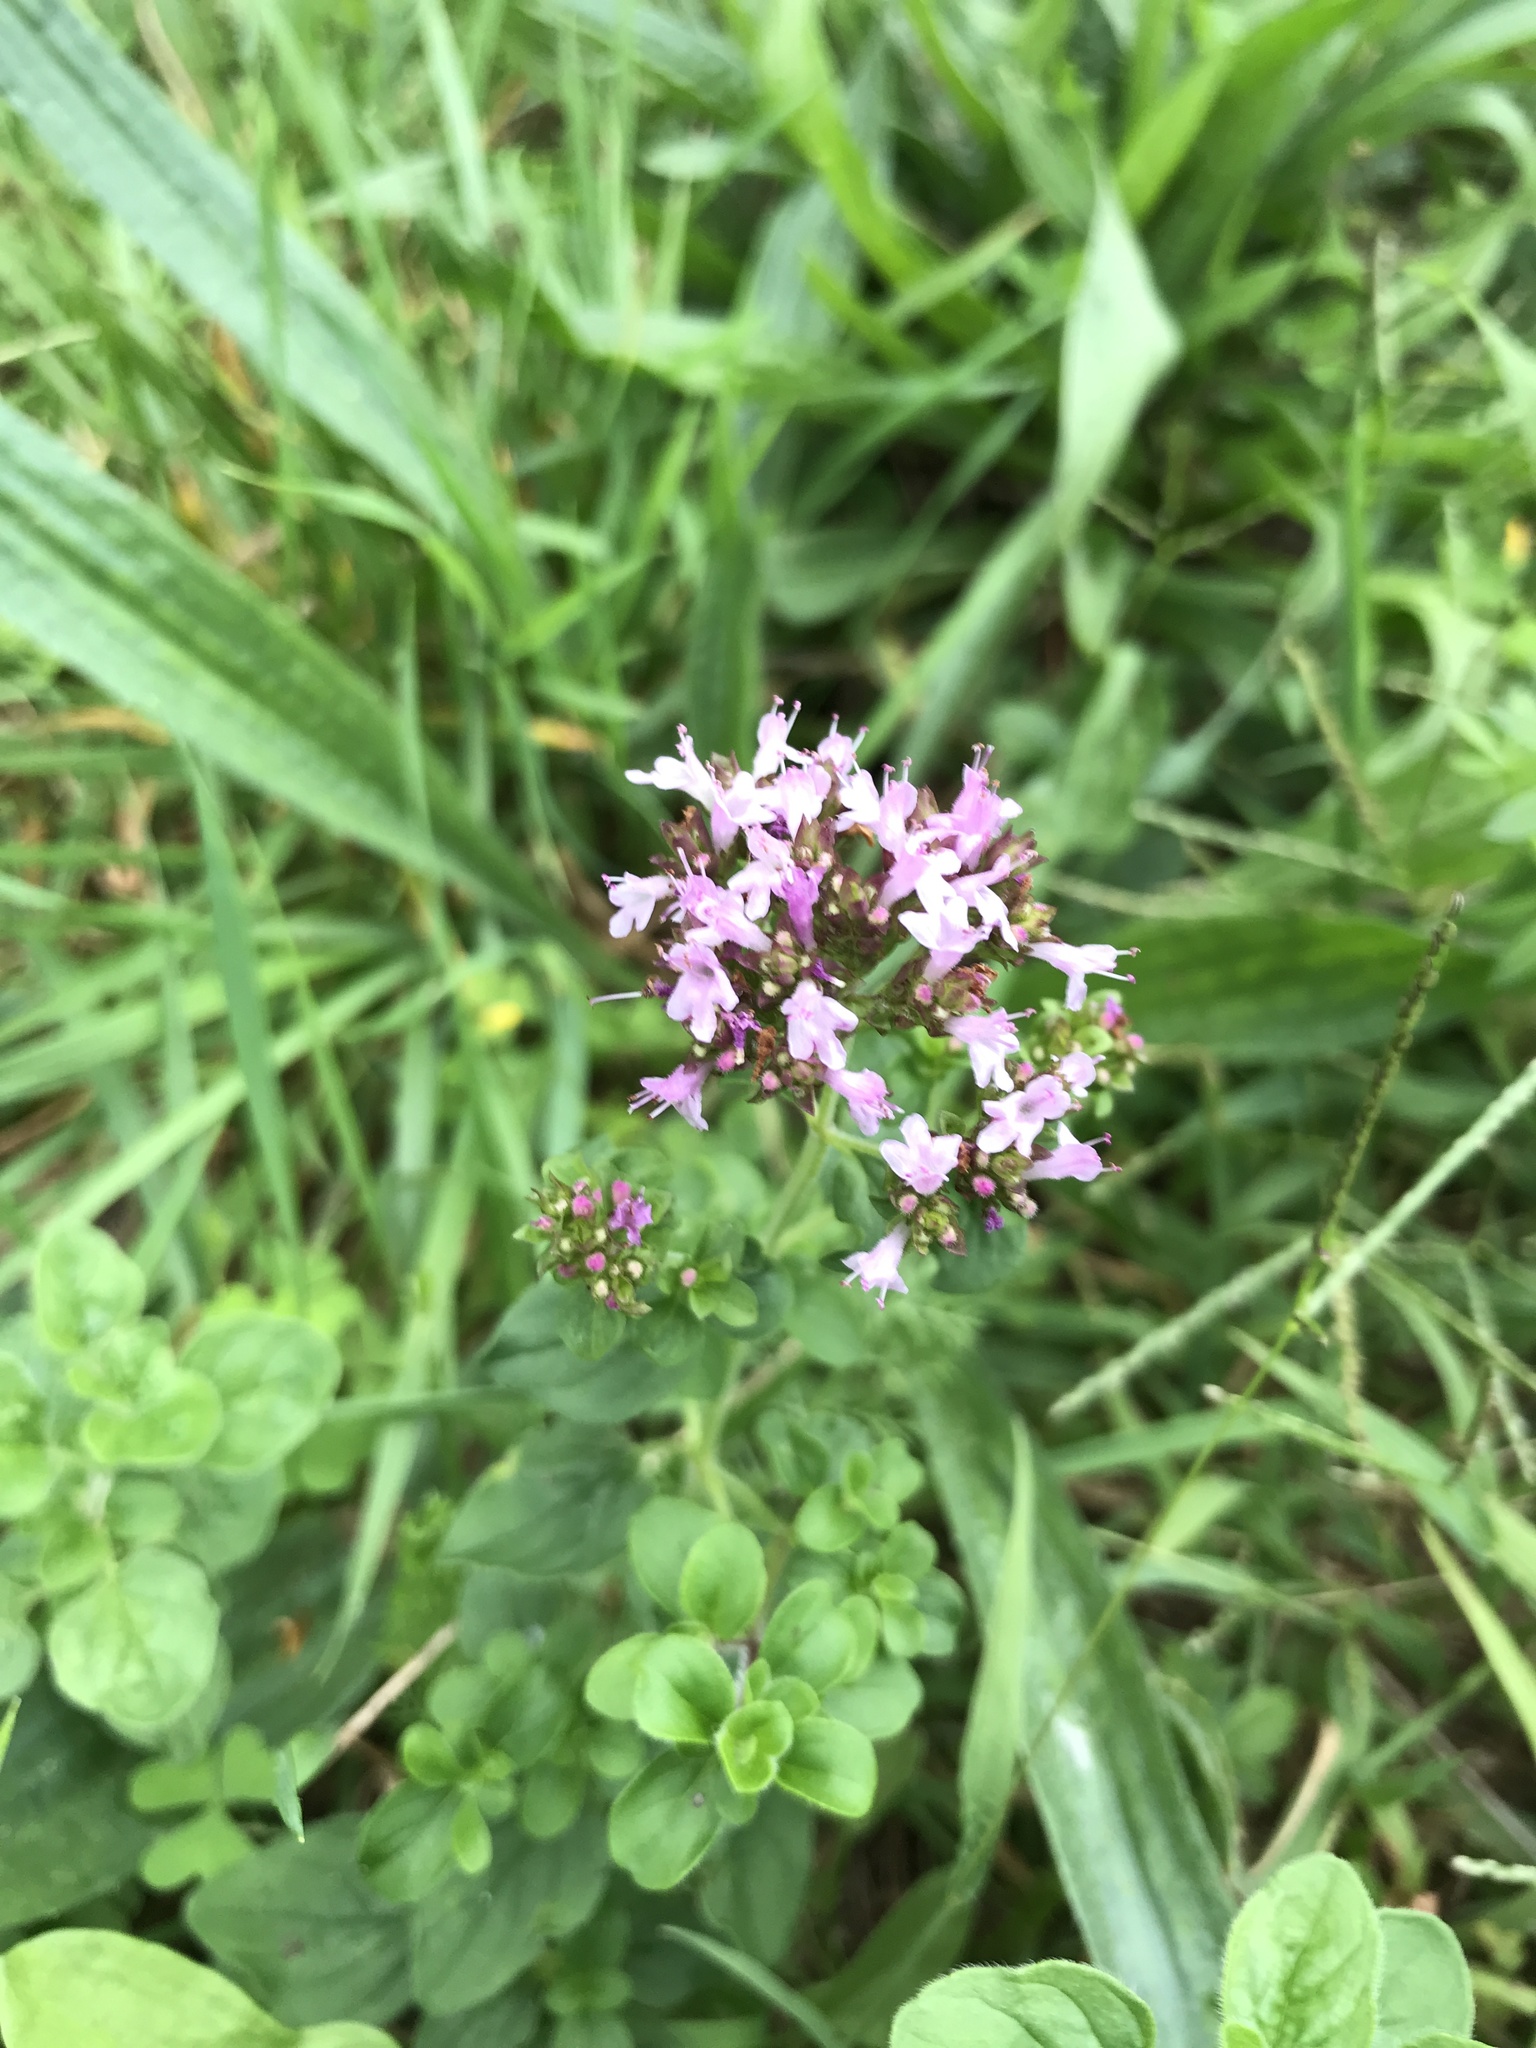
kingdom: Plantae
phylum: Tracheophyta
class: Magnoliopsida
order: Lamiales
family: Lamiaceae
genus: Origanum
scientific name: Origanum vulgare
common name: Wild marjoram
